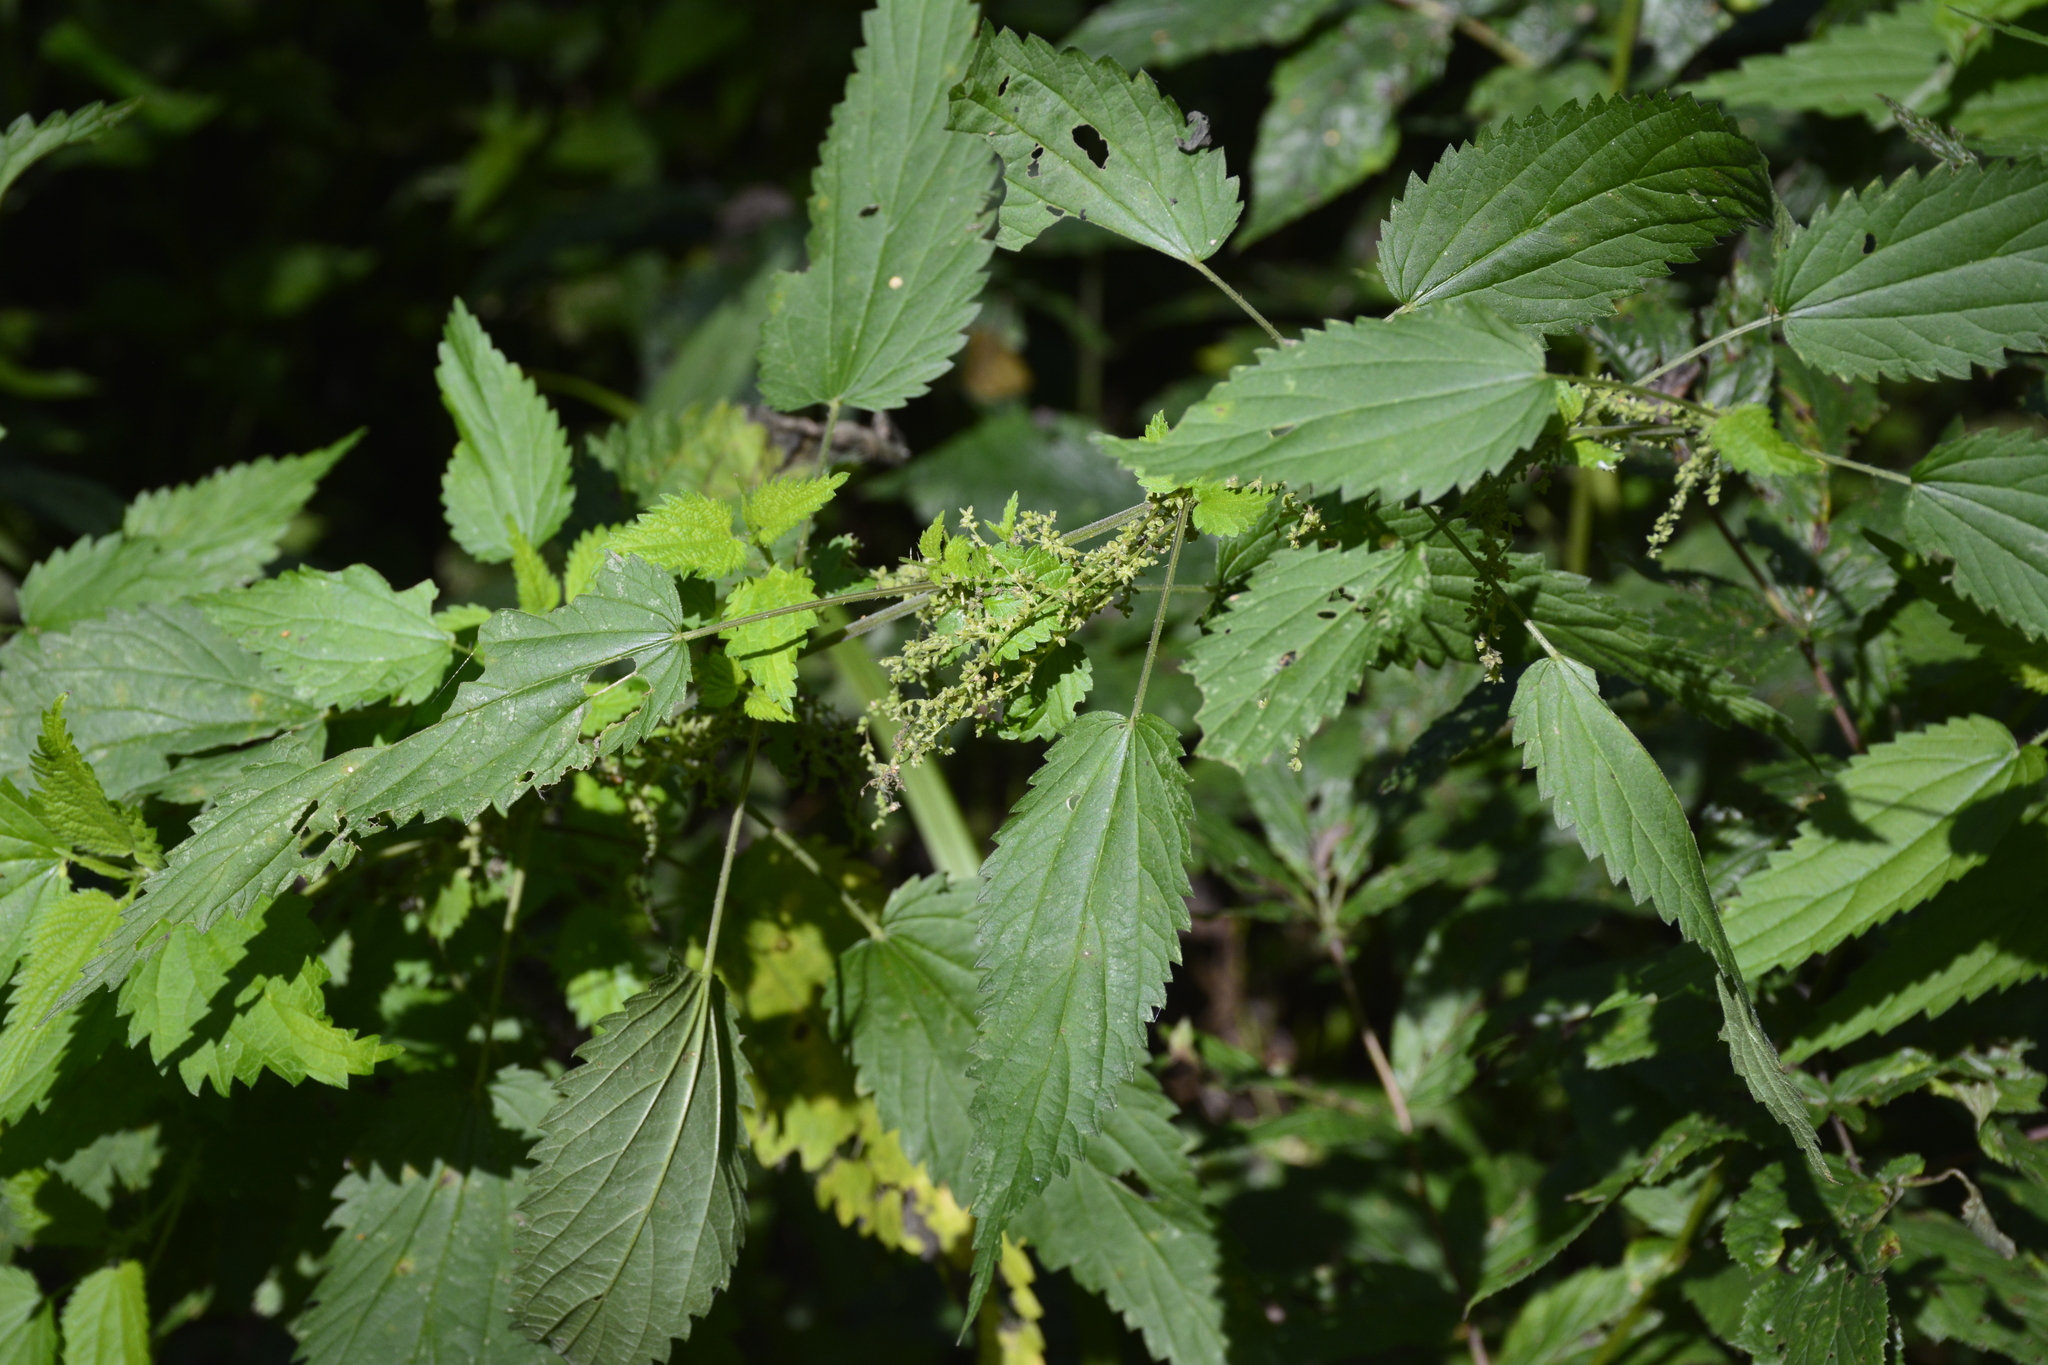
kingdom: Plantae
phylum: Tracheophyta
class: Magnoliopsida
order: Rosales
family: Urticaceae
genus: Urtica
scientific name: Urtica dioica
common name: Common nettle
